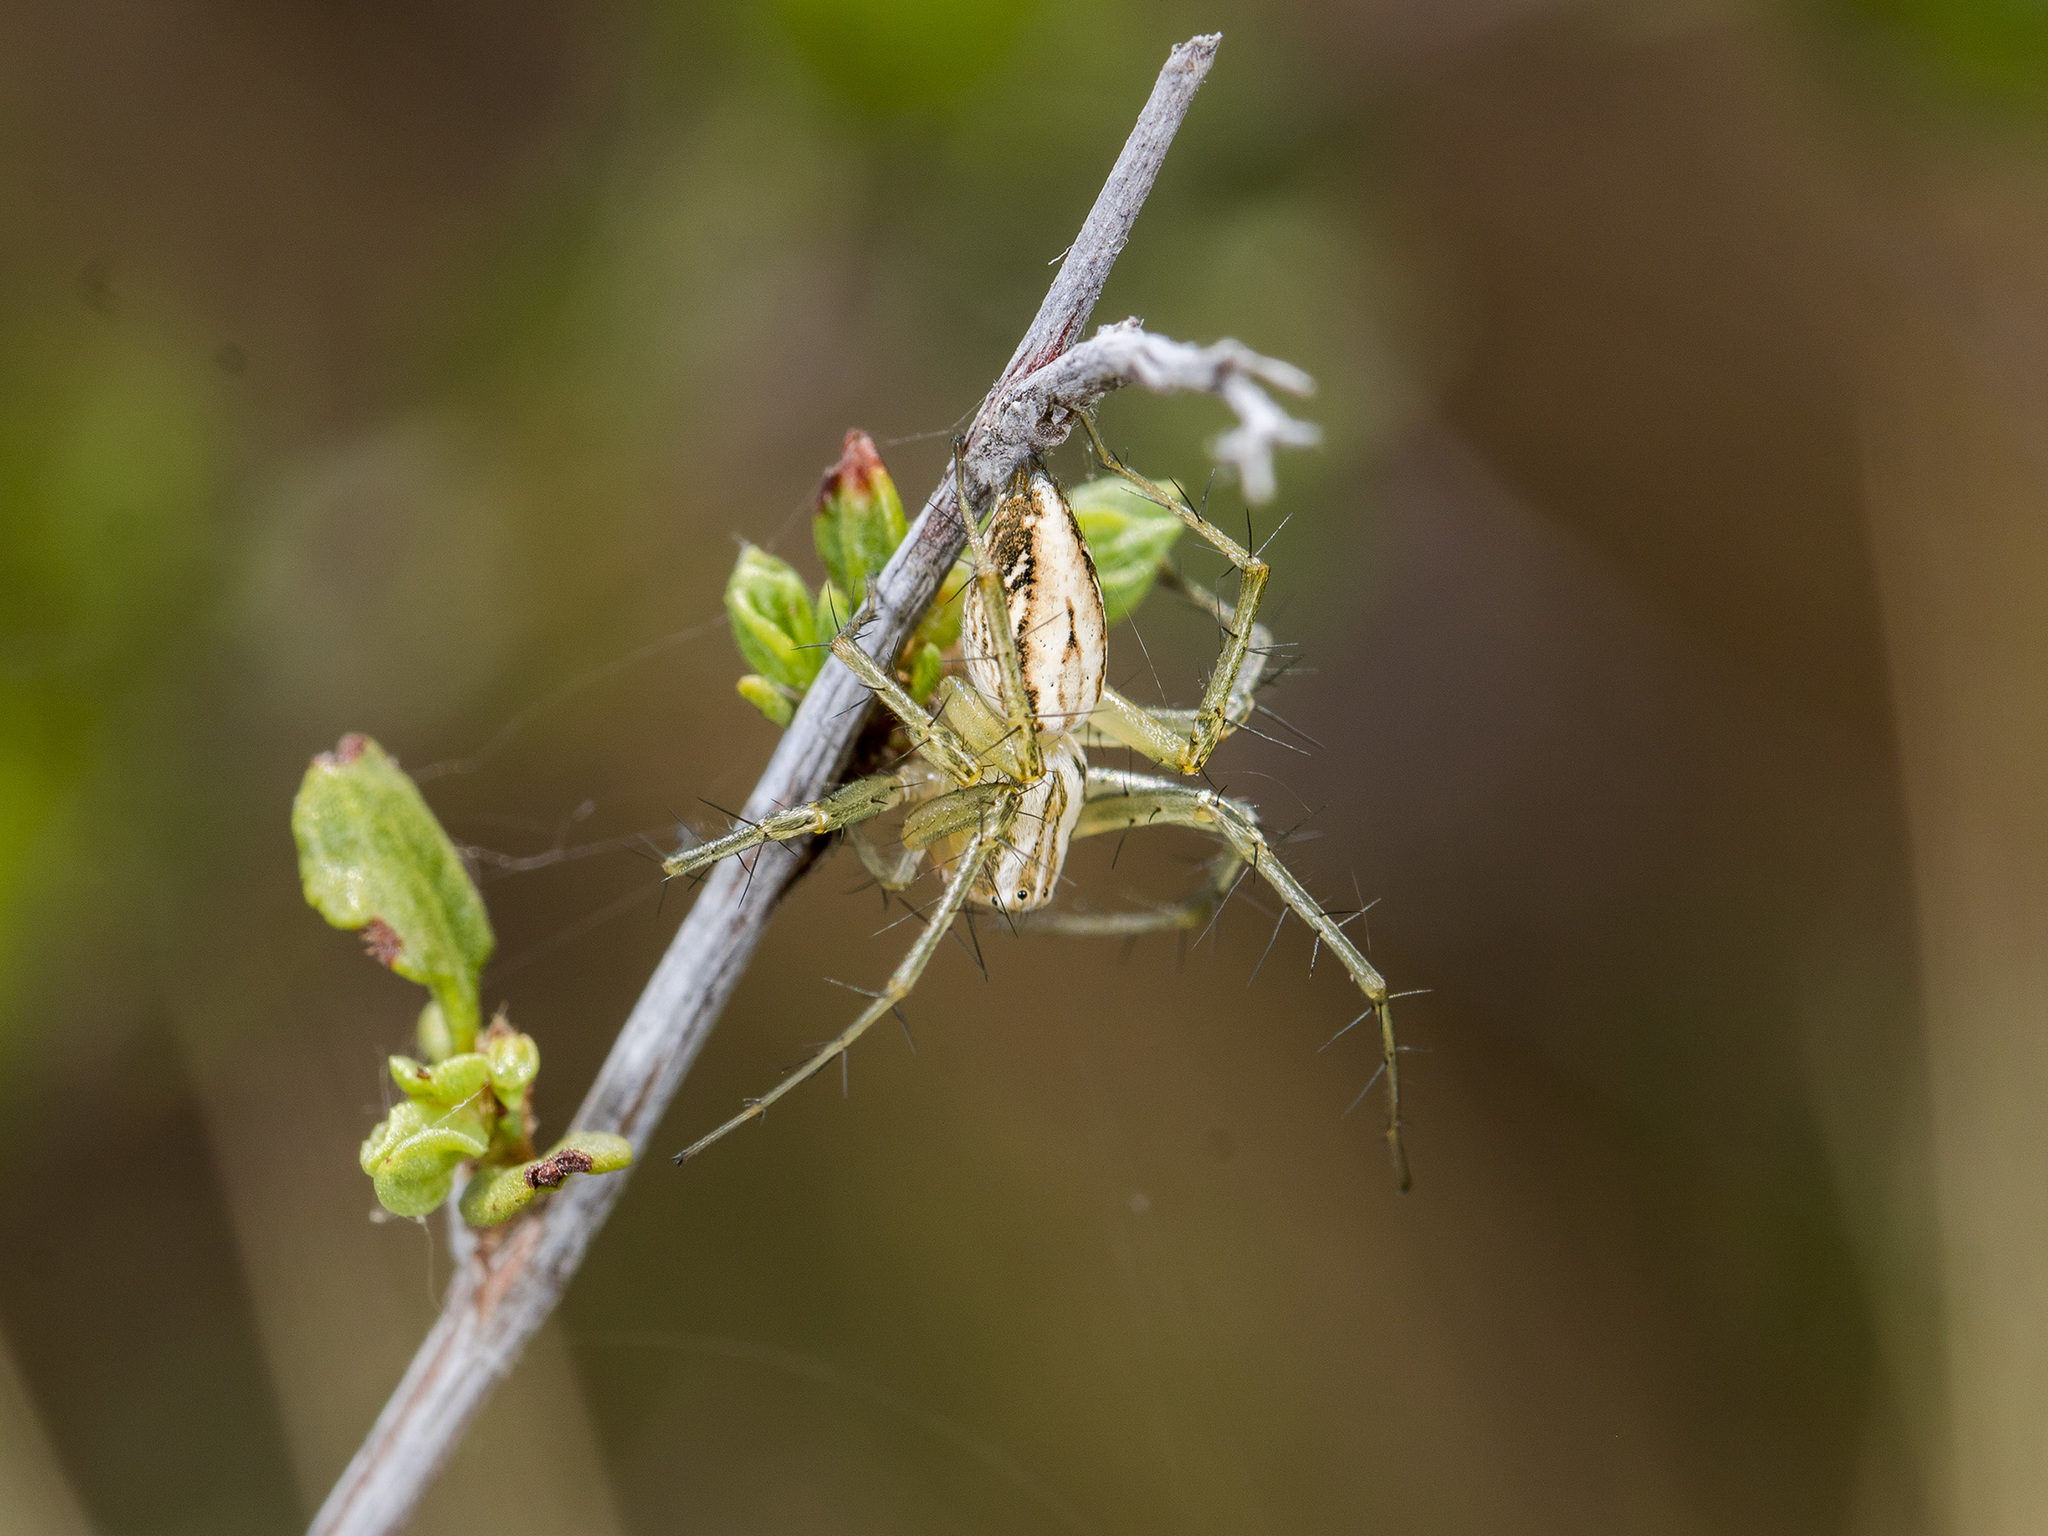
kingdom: Animalia
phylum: Arthropoda
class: Arachnida
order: Araneae
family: Oxyopidae
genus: Oxyopes
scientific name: Oxyopes lineatus
